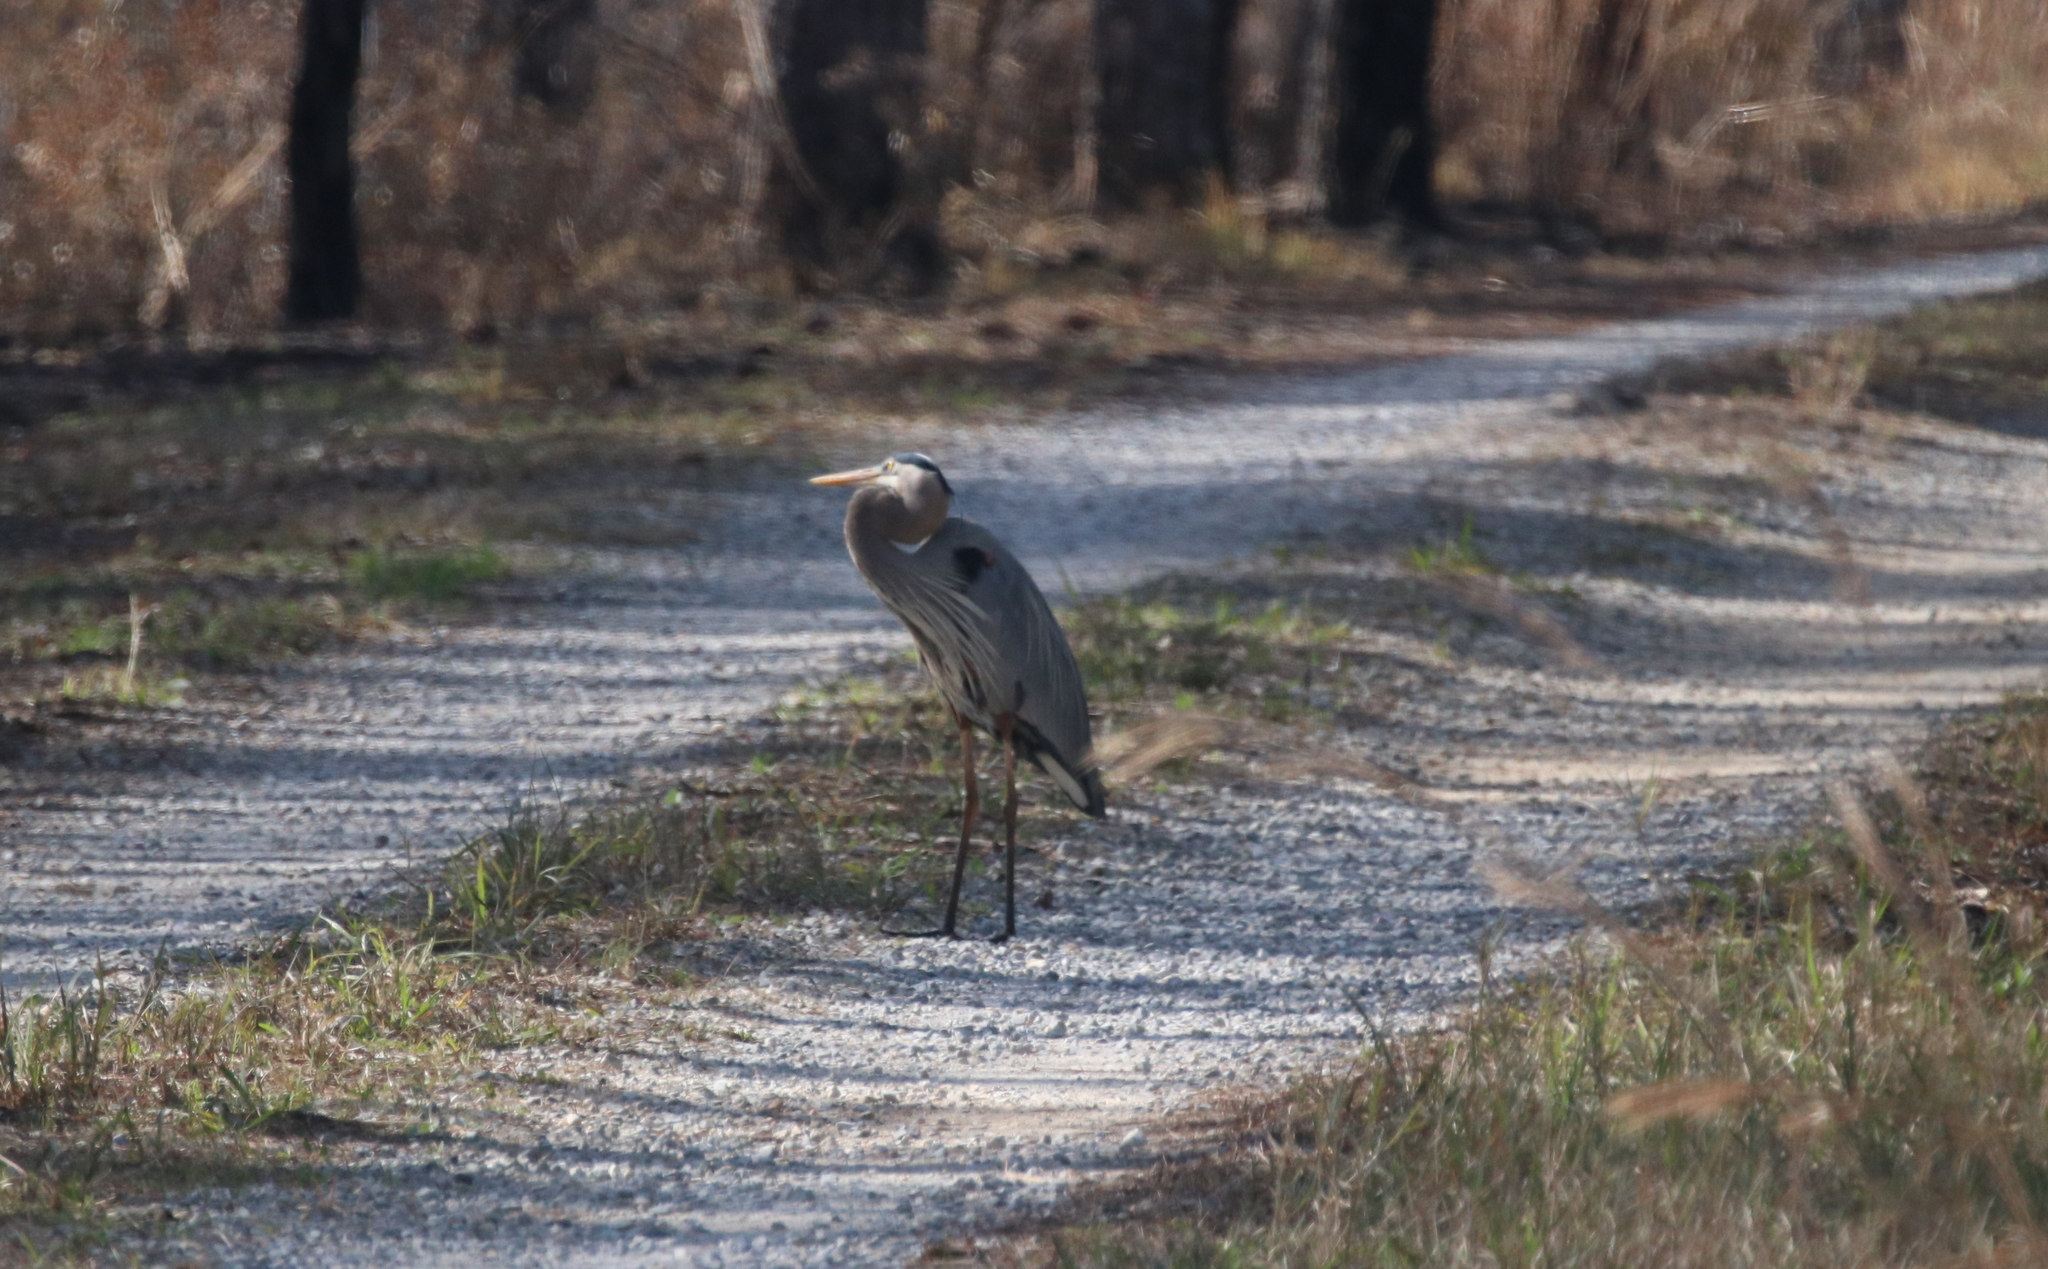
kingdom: Animalia
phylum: Chordata
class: Aves
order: Pelecaniformes
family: Ardeidae
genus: Ardea
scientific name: Ardea herodias
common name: Great blue heron
